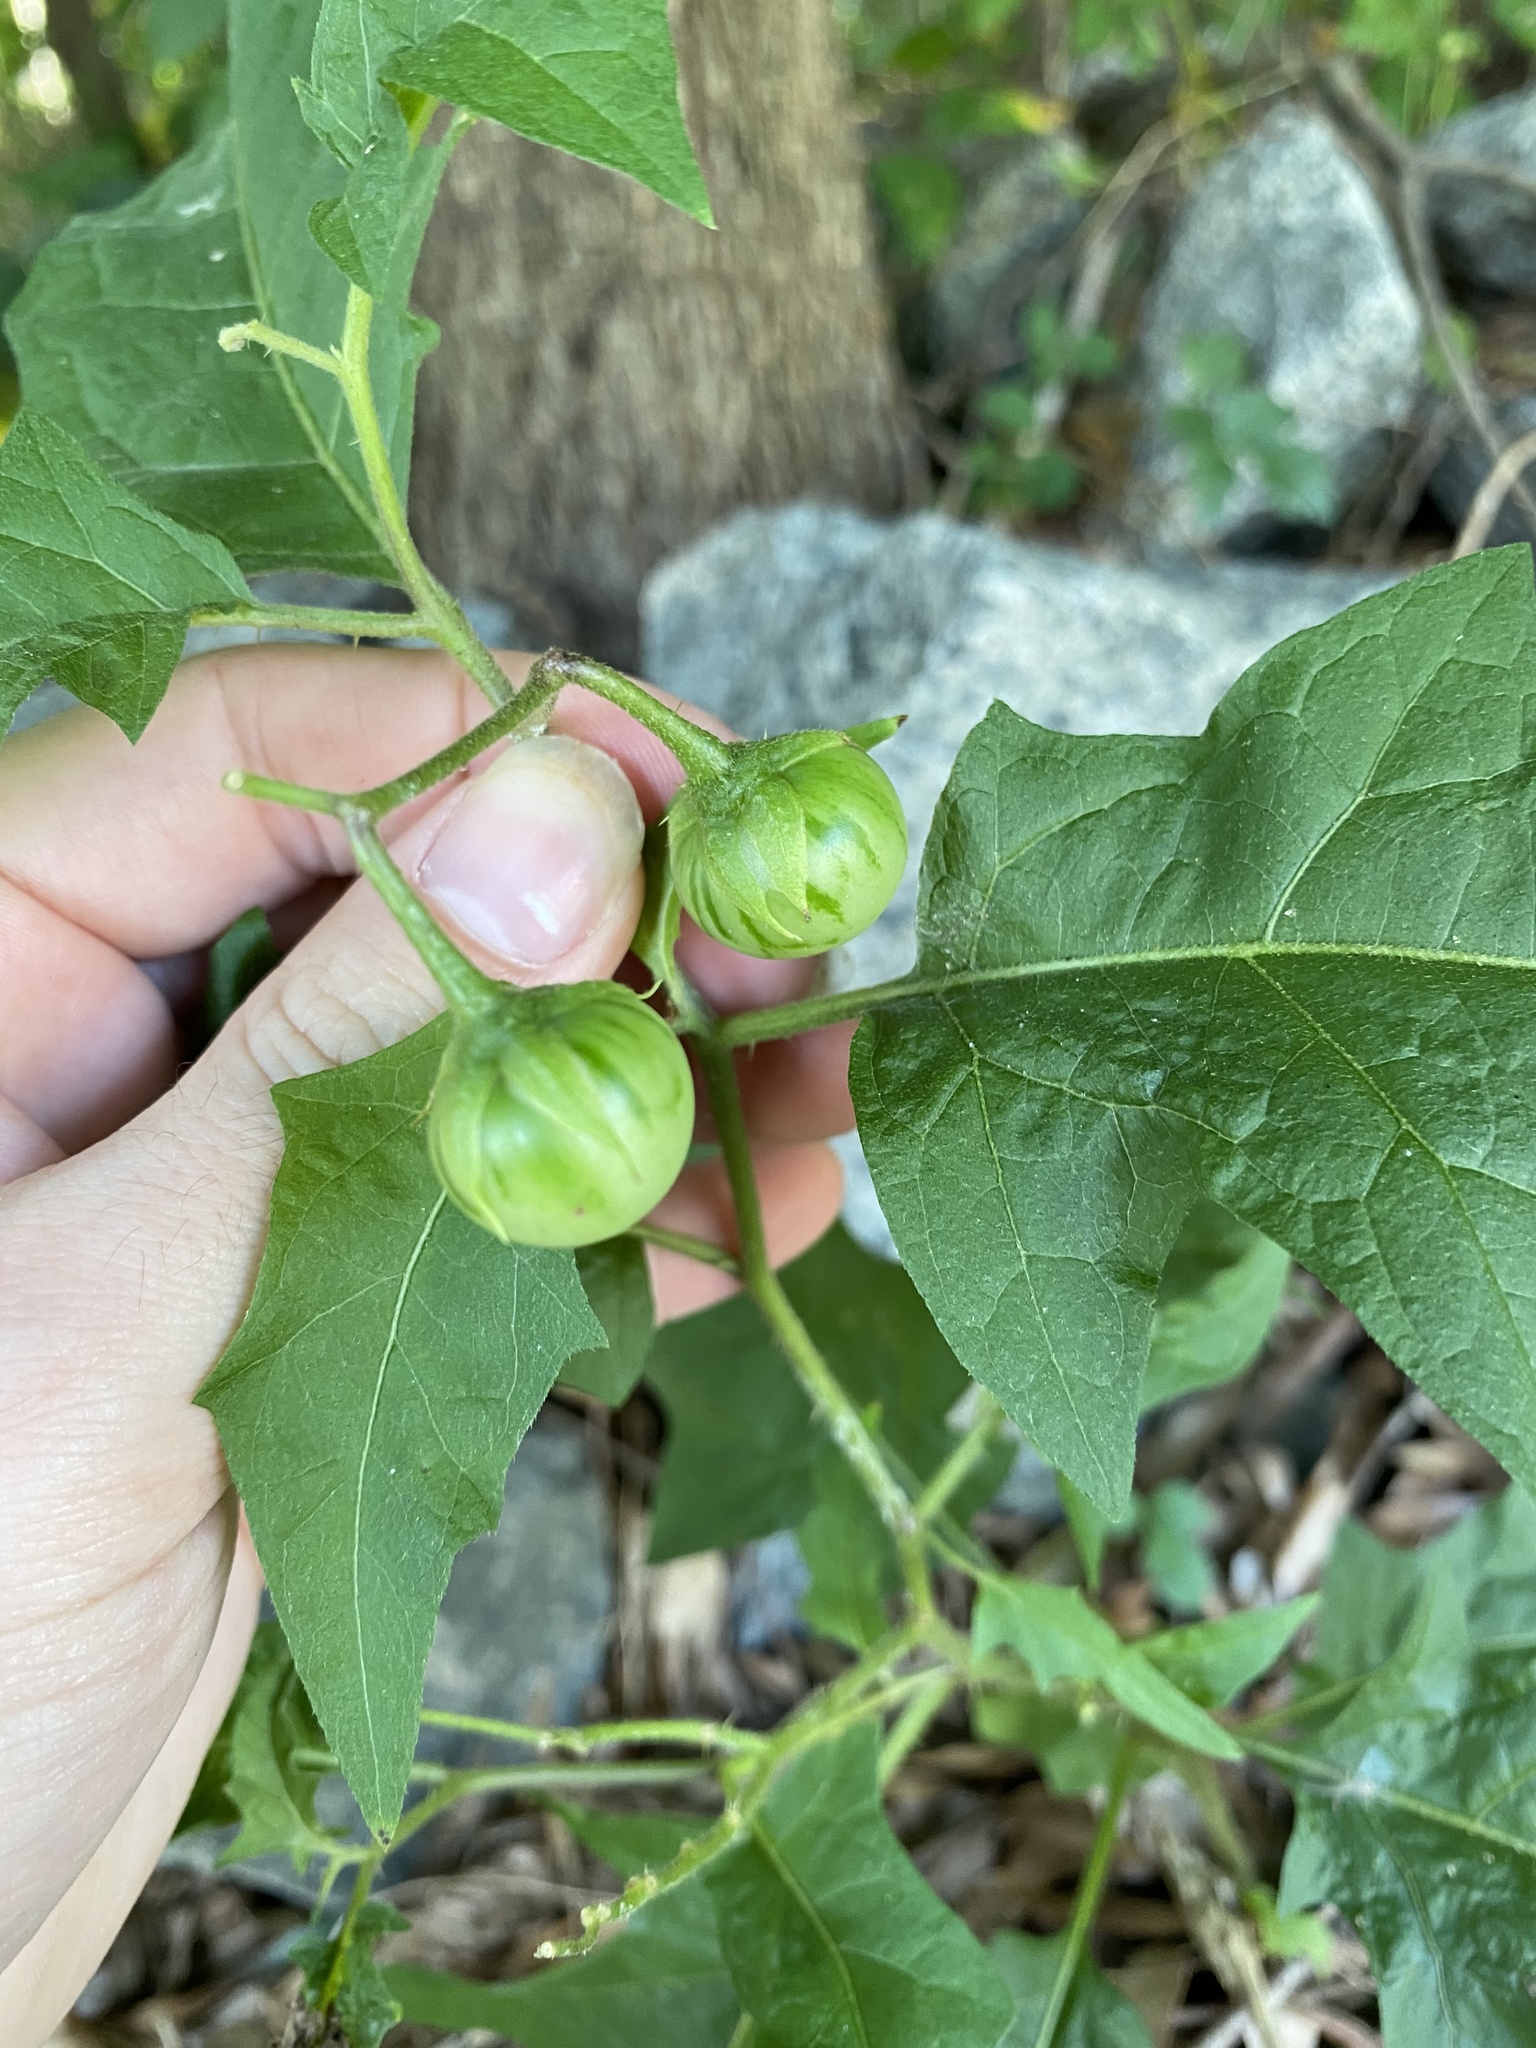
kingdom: Plantae
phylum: Tracheophyta
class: Magnoliopsida
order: Solanales
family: Solanaceae
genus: Solanum
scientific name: Solanum carolinense
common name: Horse-nettle
